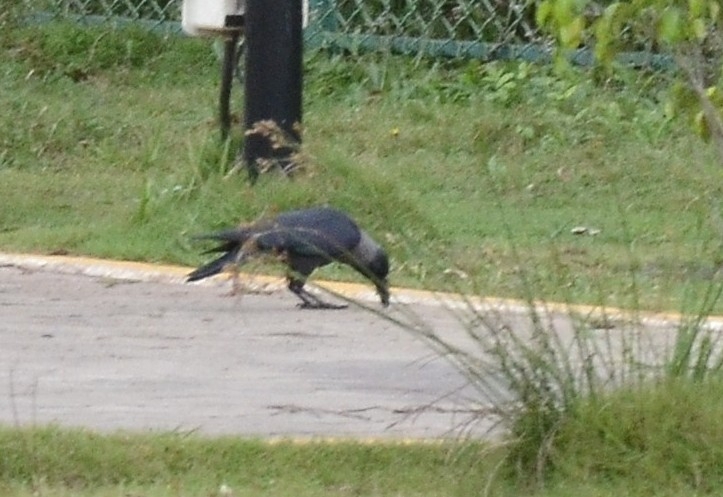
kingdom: Animalia
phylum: Chordata
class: Aves
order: Passeriformes
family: Corvidae
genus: Corvus
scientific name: Corvus splendens
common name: House crow
